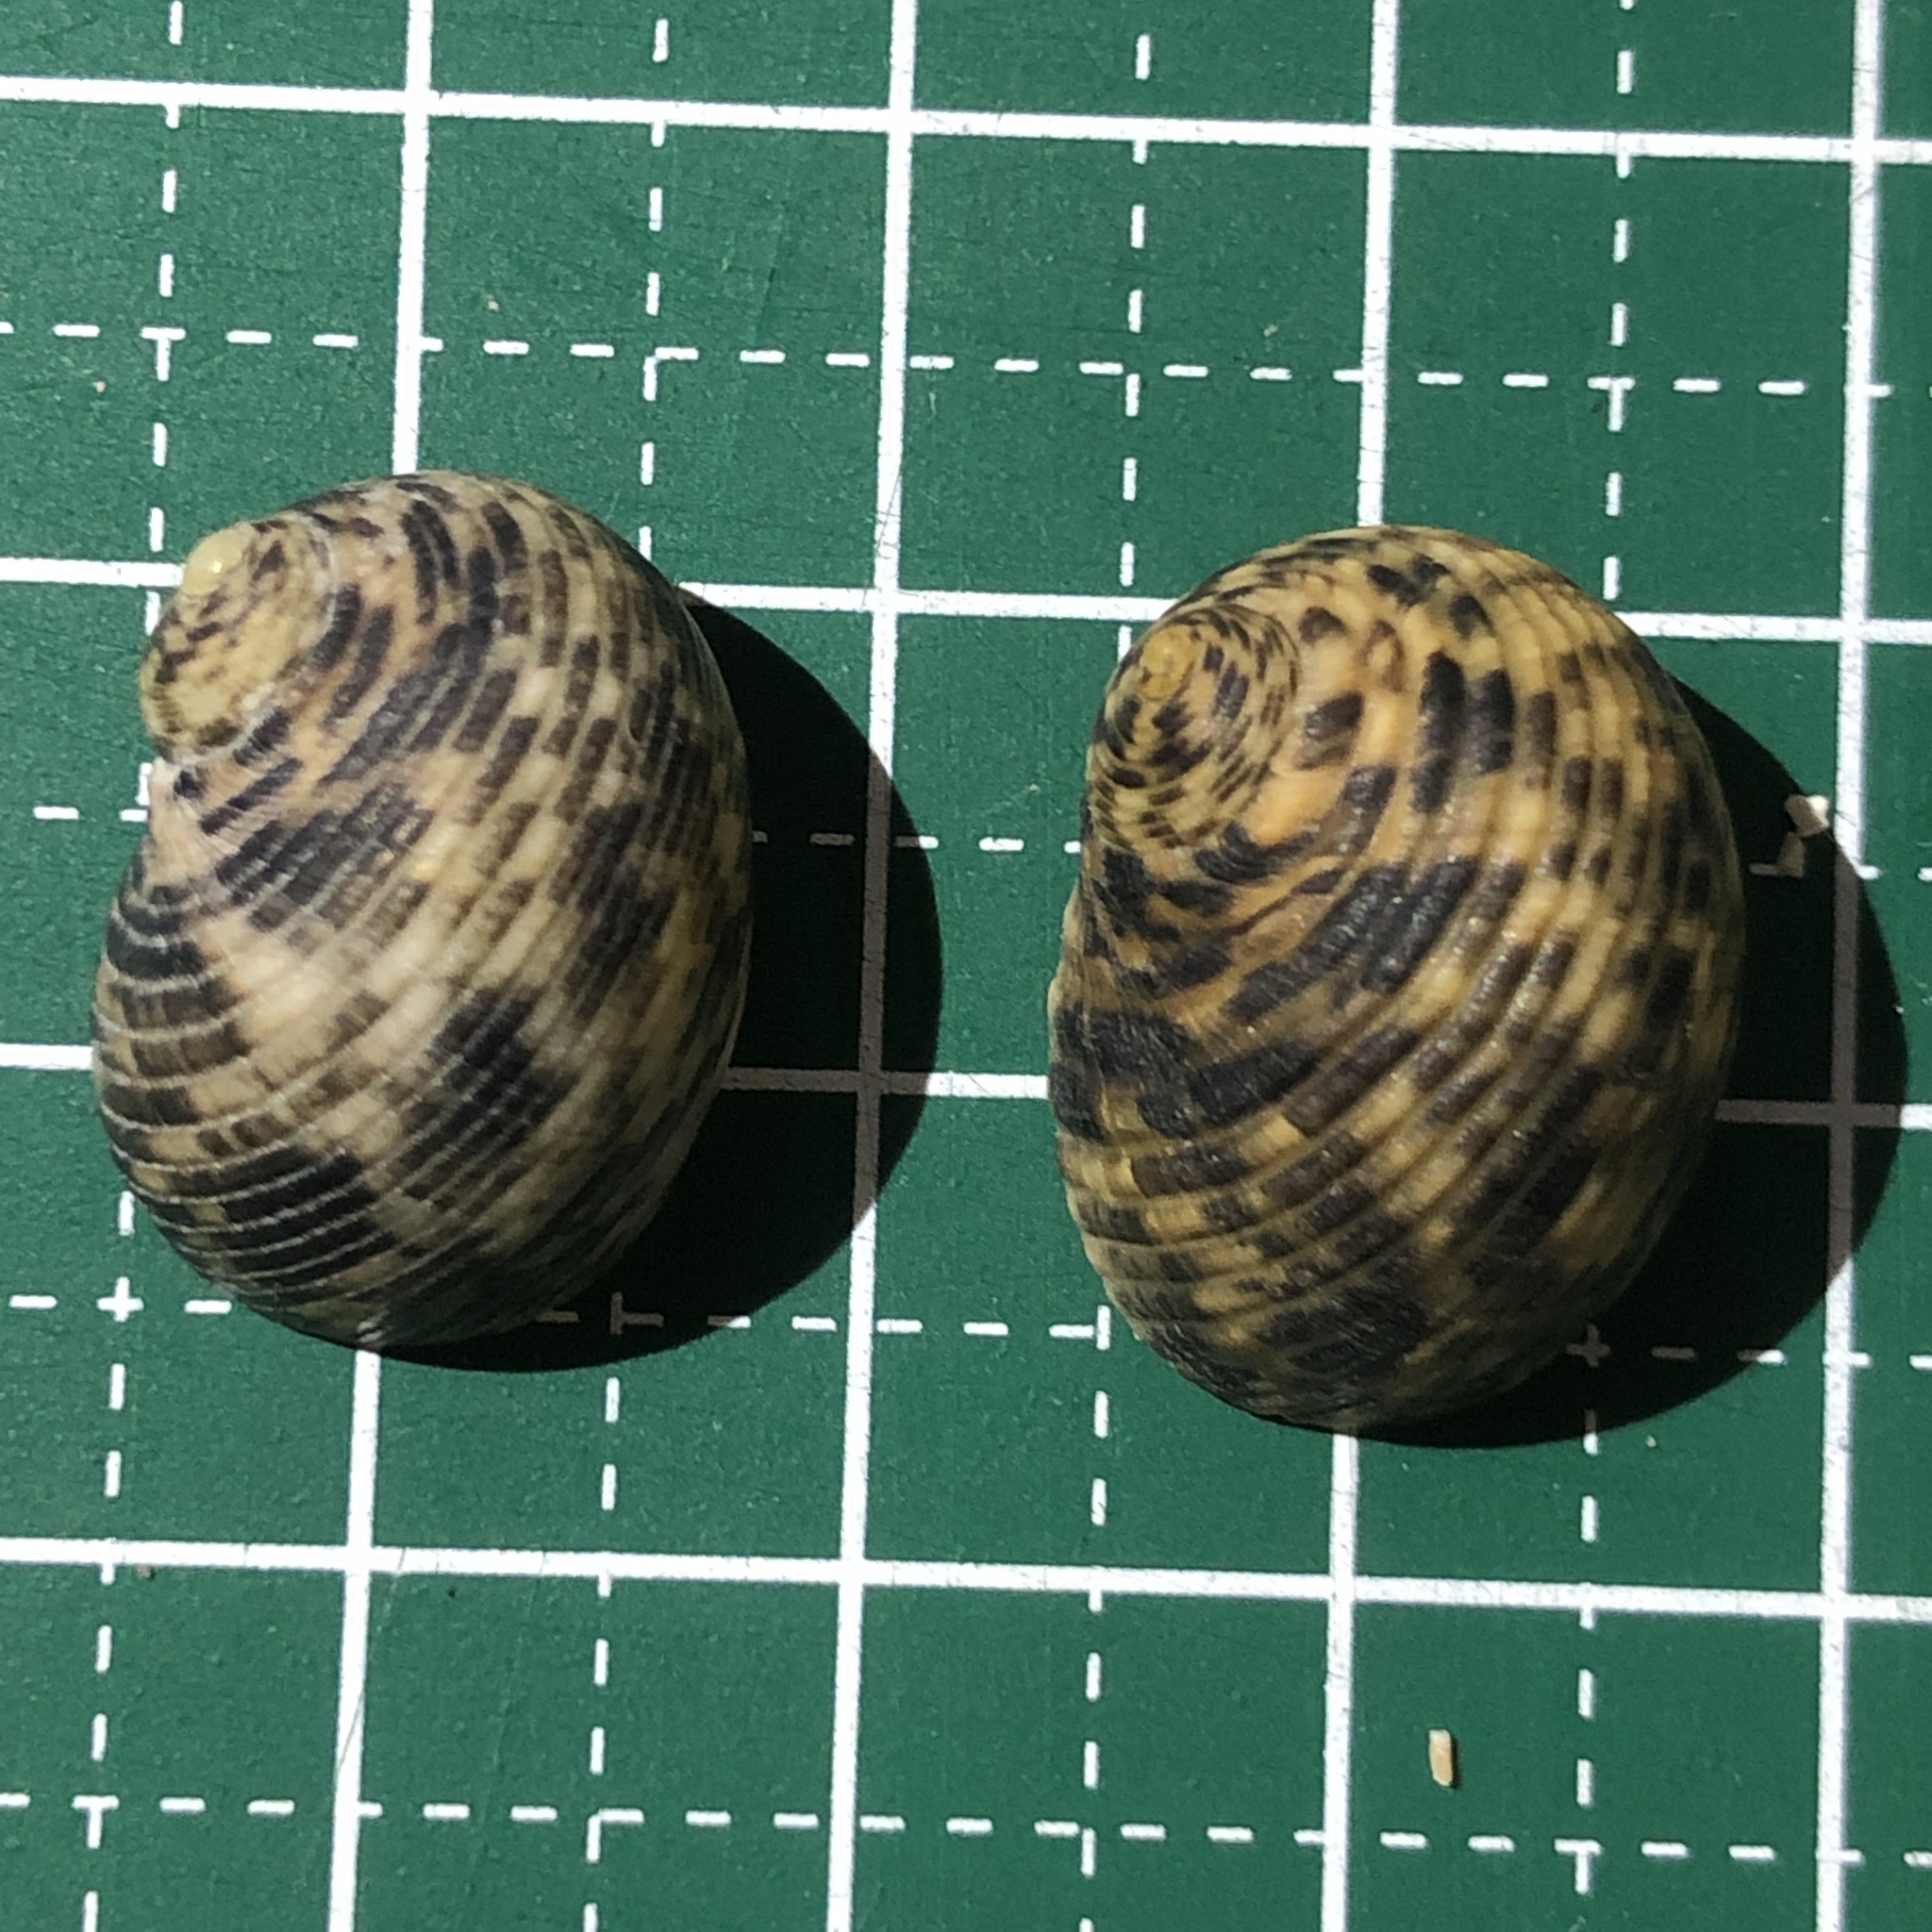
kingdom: Animalia
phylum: Mollusca
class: Gastropoda
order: Cycloneritida
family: Neritidae
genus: Nerita
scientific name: Nerita striata
